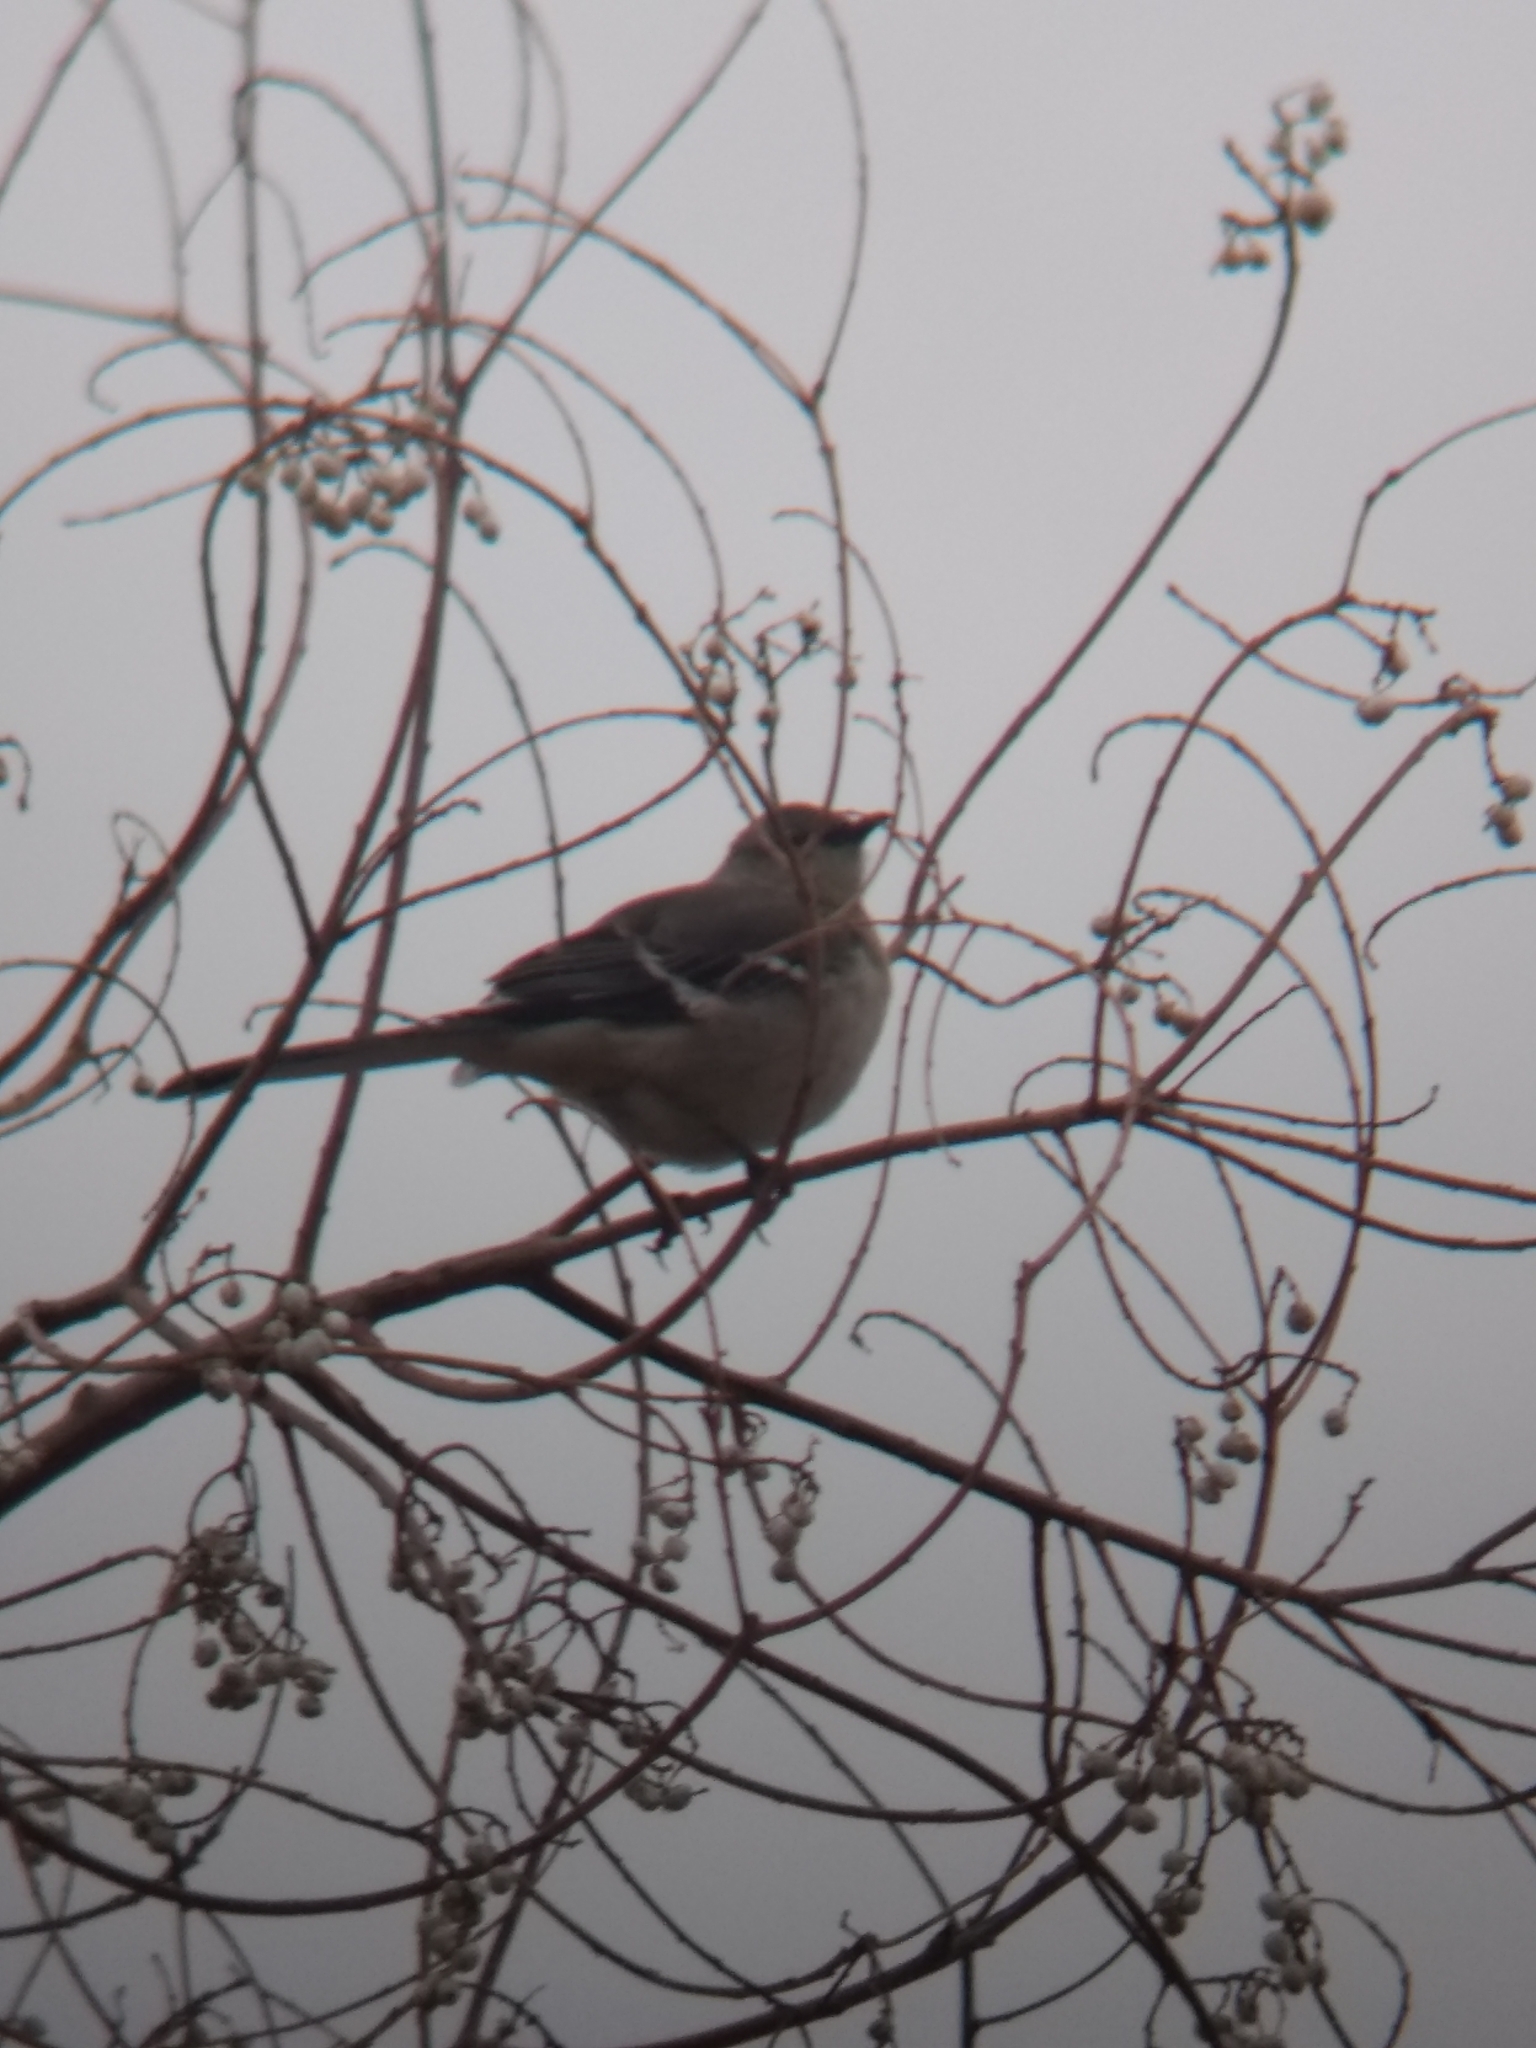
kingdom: Animalia
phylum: Chordata
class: Aves
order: Passeriformes
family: Mimidae
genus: Mimus
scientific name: Mimus polyglottos
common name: Northern mockingbird
